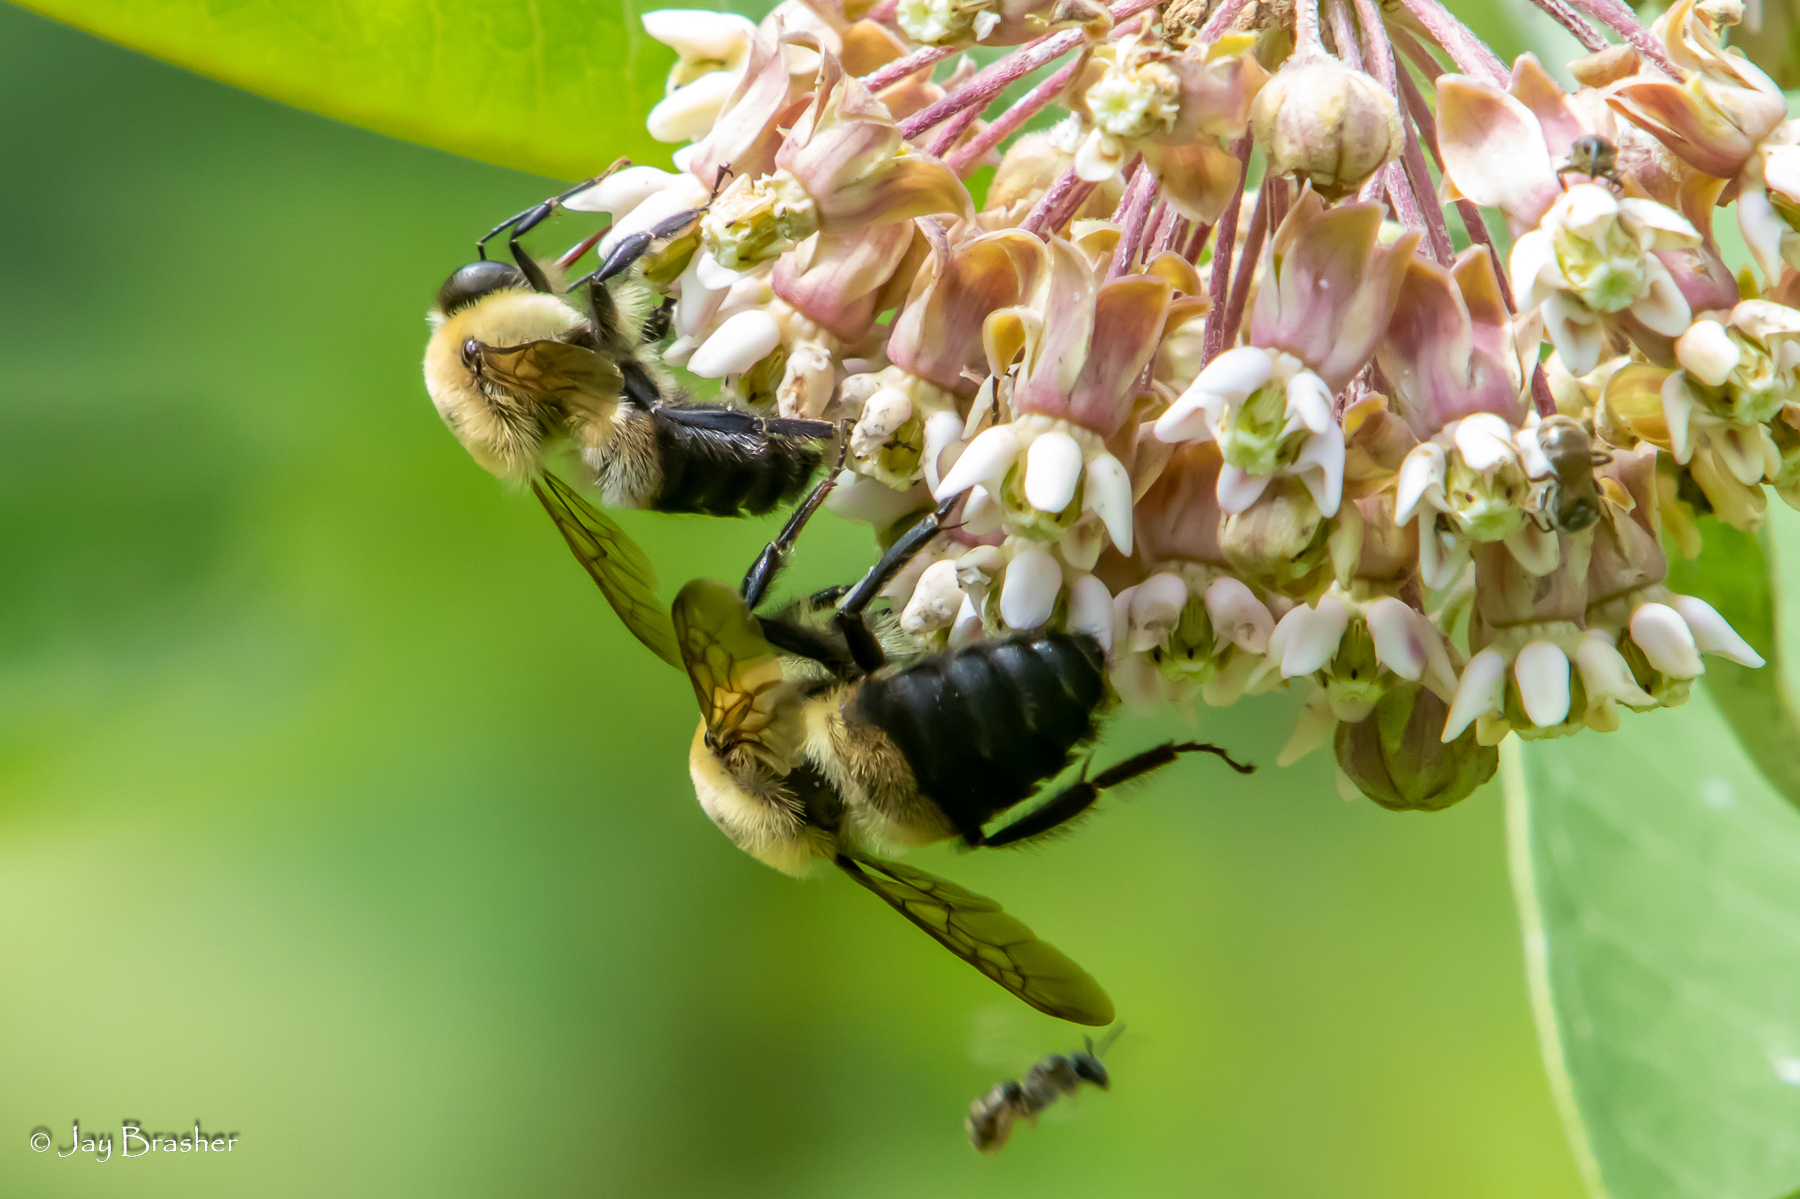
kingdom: Animalia
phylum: Arthropoda
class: Insecta
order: Hymenoptera
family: Apidae
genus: Bombus
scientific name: Bombus griseocollis
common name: Brown-belted bumble bee
